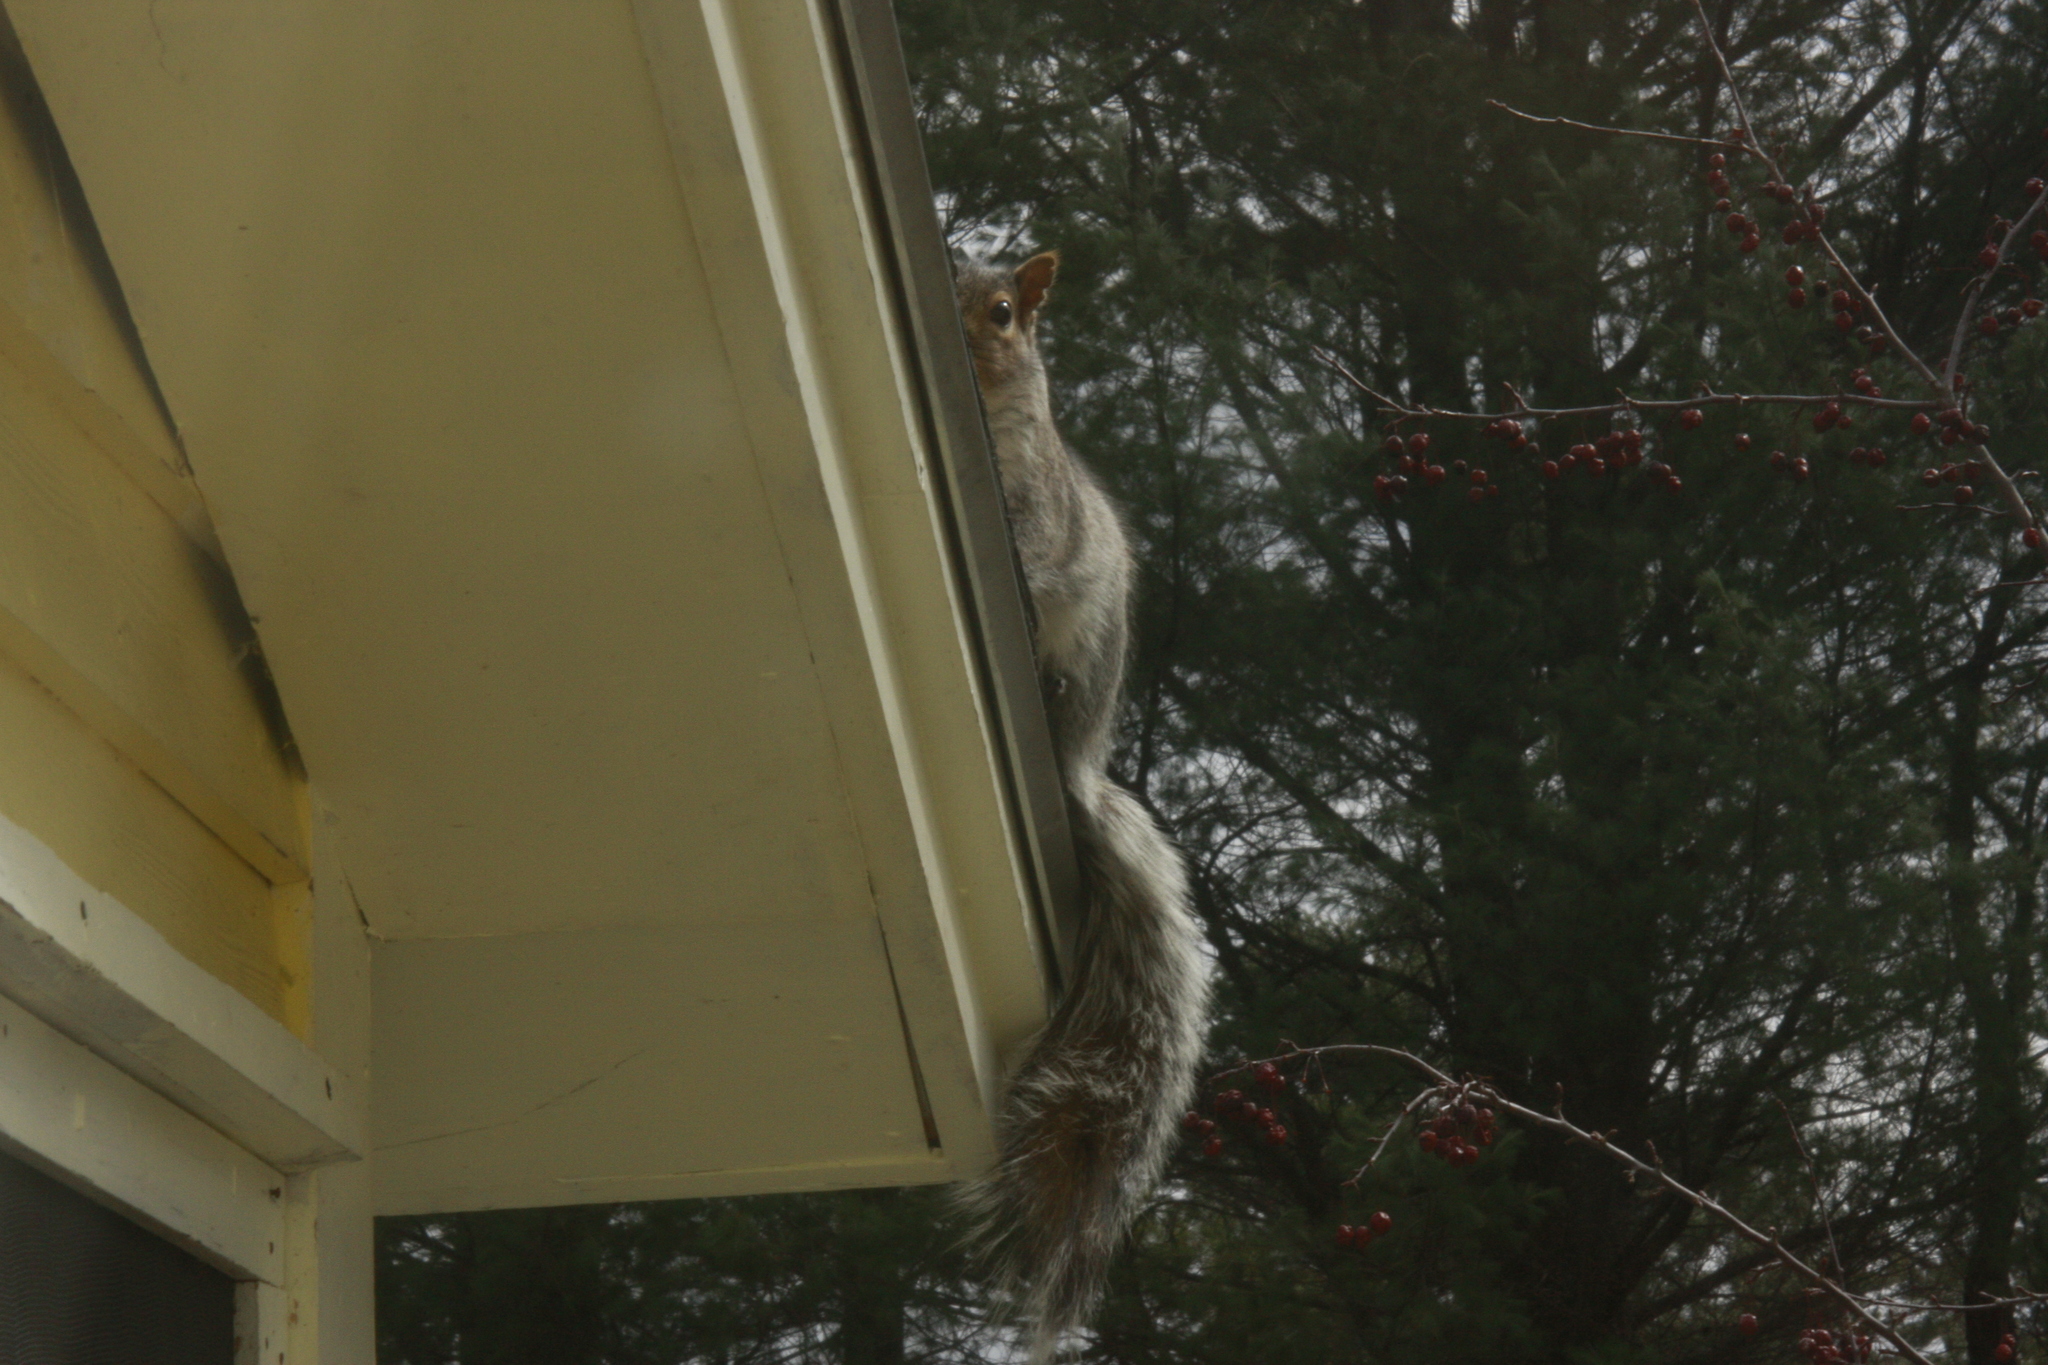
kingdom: Animalia
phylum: Chordata
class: Mammalia
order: Rodentia
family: Sciuridae
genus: Sciurus
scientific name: Sciurus carolinensis
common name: Eastern gray squirrel
